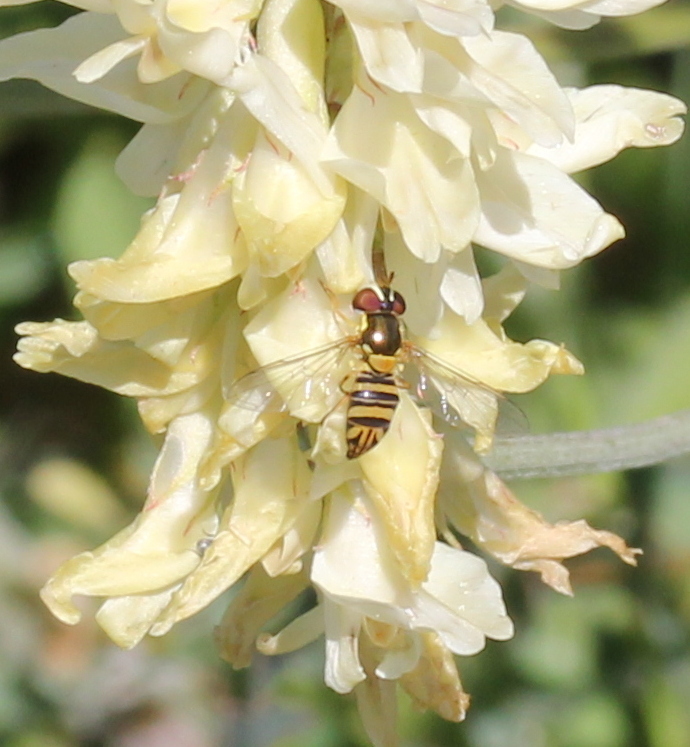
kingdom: Animalia
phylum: Arthropoda
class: Insecta
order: Diptera
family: Syrphidae
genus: Allograpta
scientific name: Allograpta obliqua
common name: Common oblique syrphid
